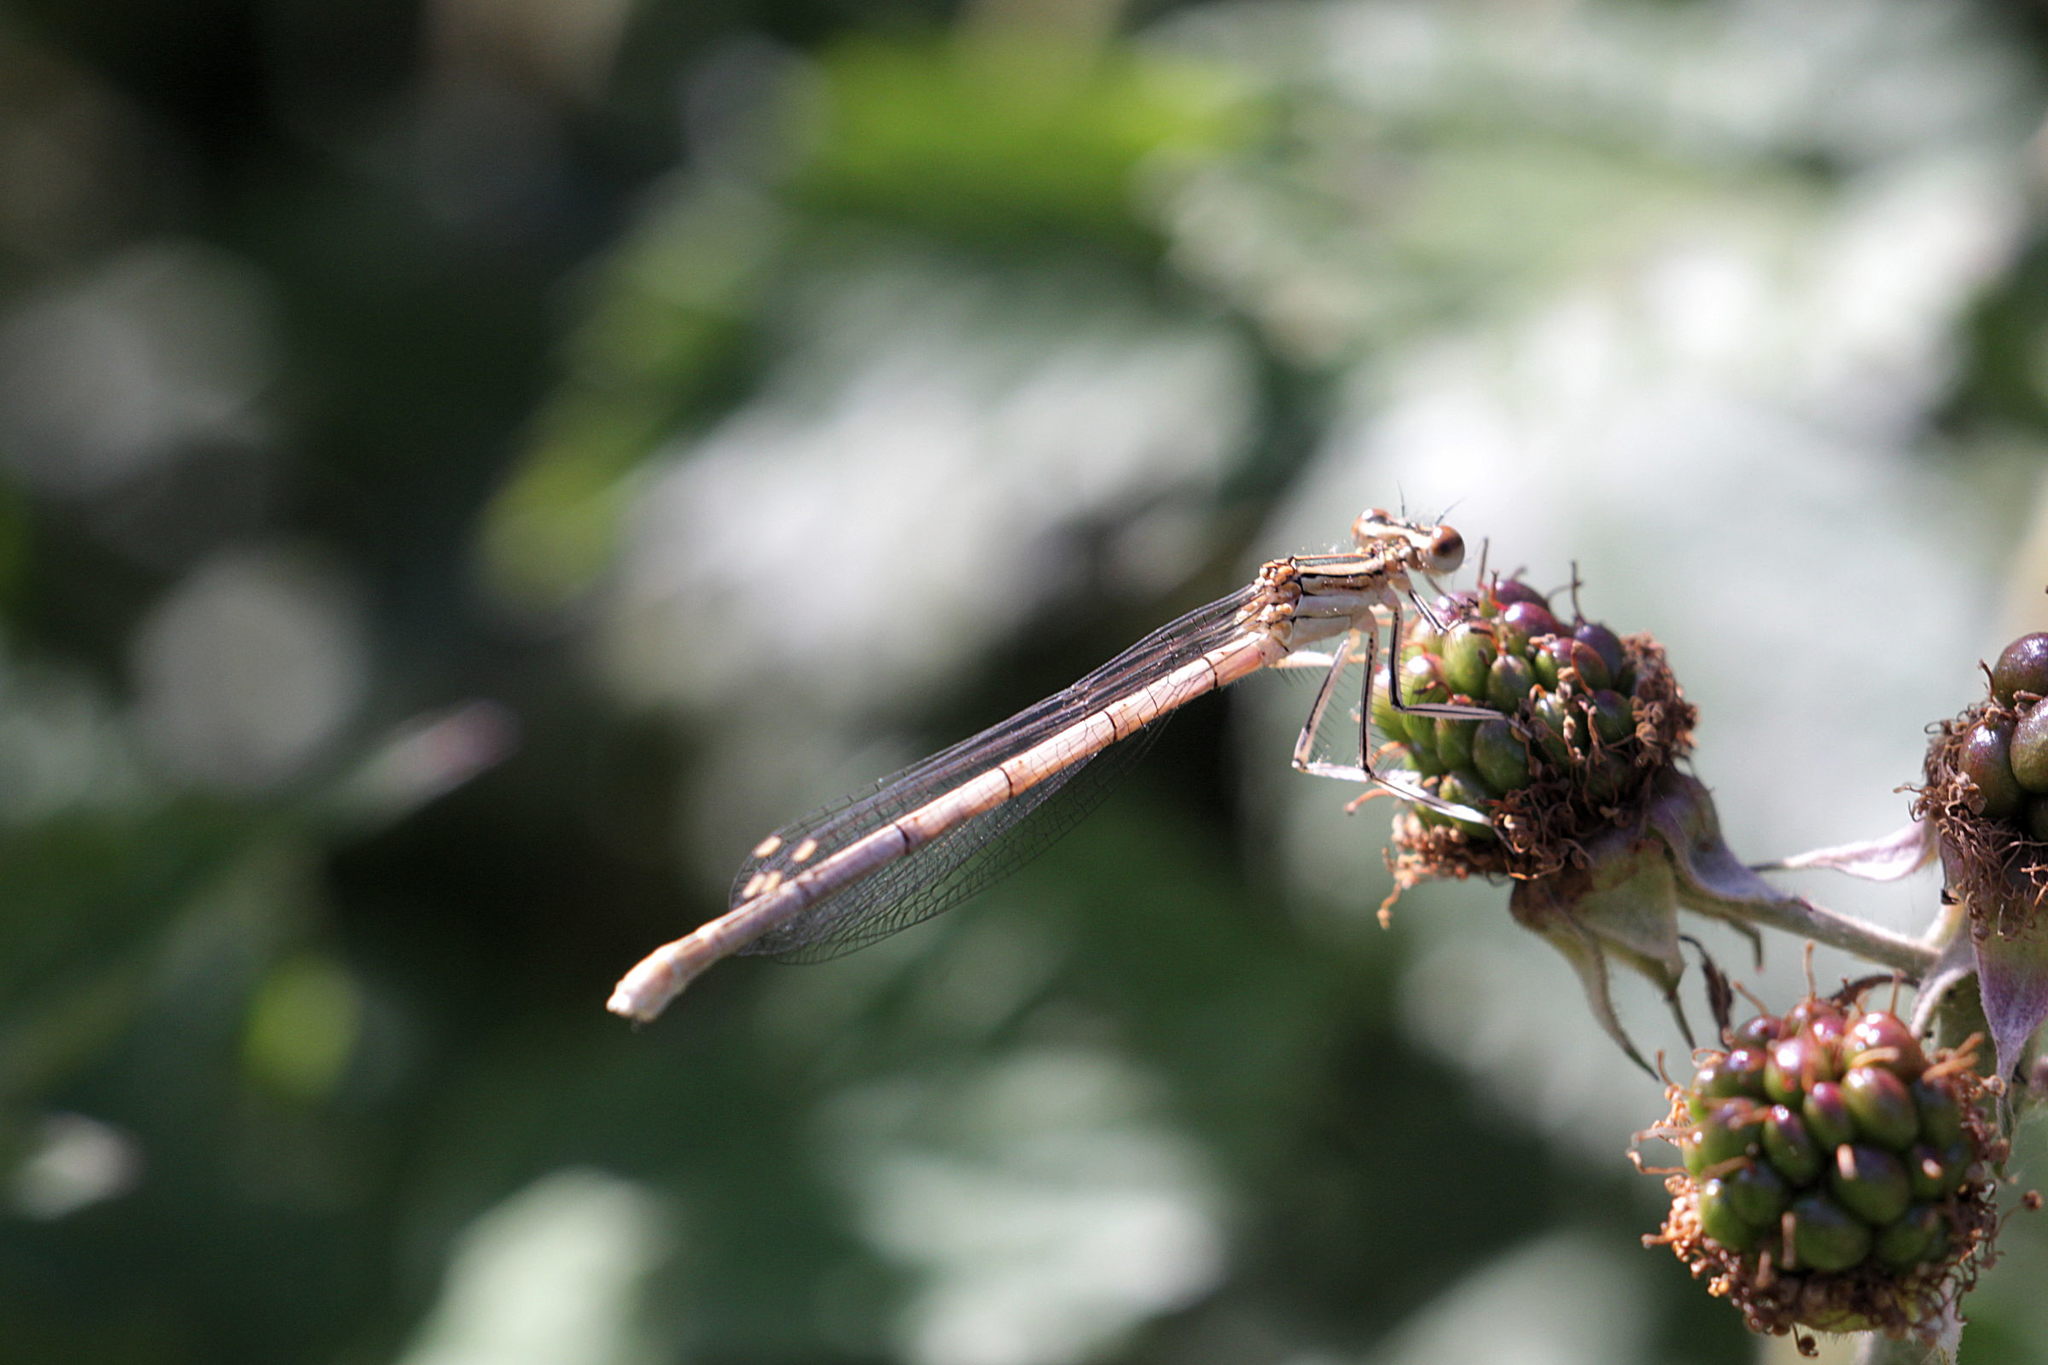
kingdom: Animalia
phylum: Arthropoda
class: Insecta
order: Odonata
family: Platycnemididae
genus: Platycnemis
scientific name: Platycnemis pennipes
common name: White-legged damselfly
